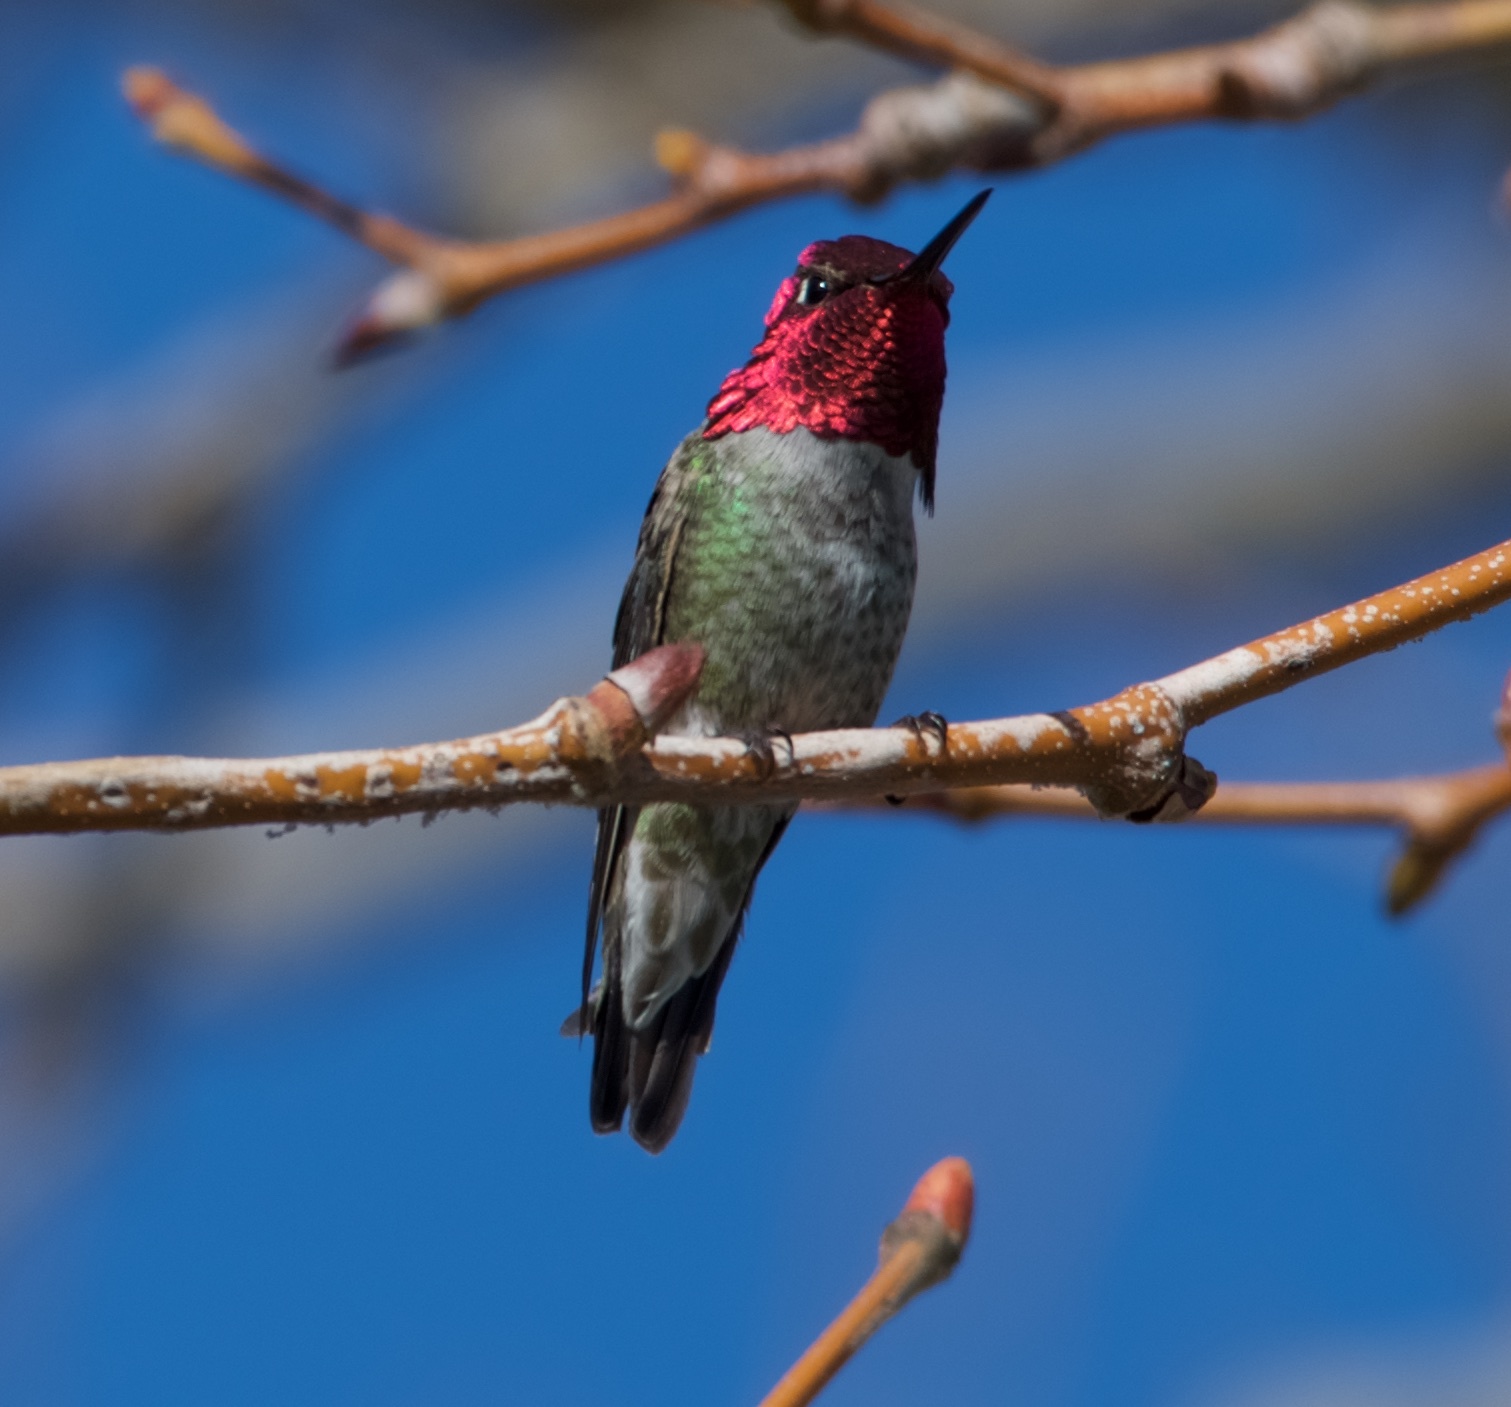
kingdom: Animalia
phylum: Chordata
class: Aves
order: Apodiformes
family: Trochilidae
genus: Calypte
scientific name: Calypte anna
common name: Anna's hummingbird
